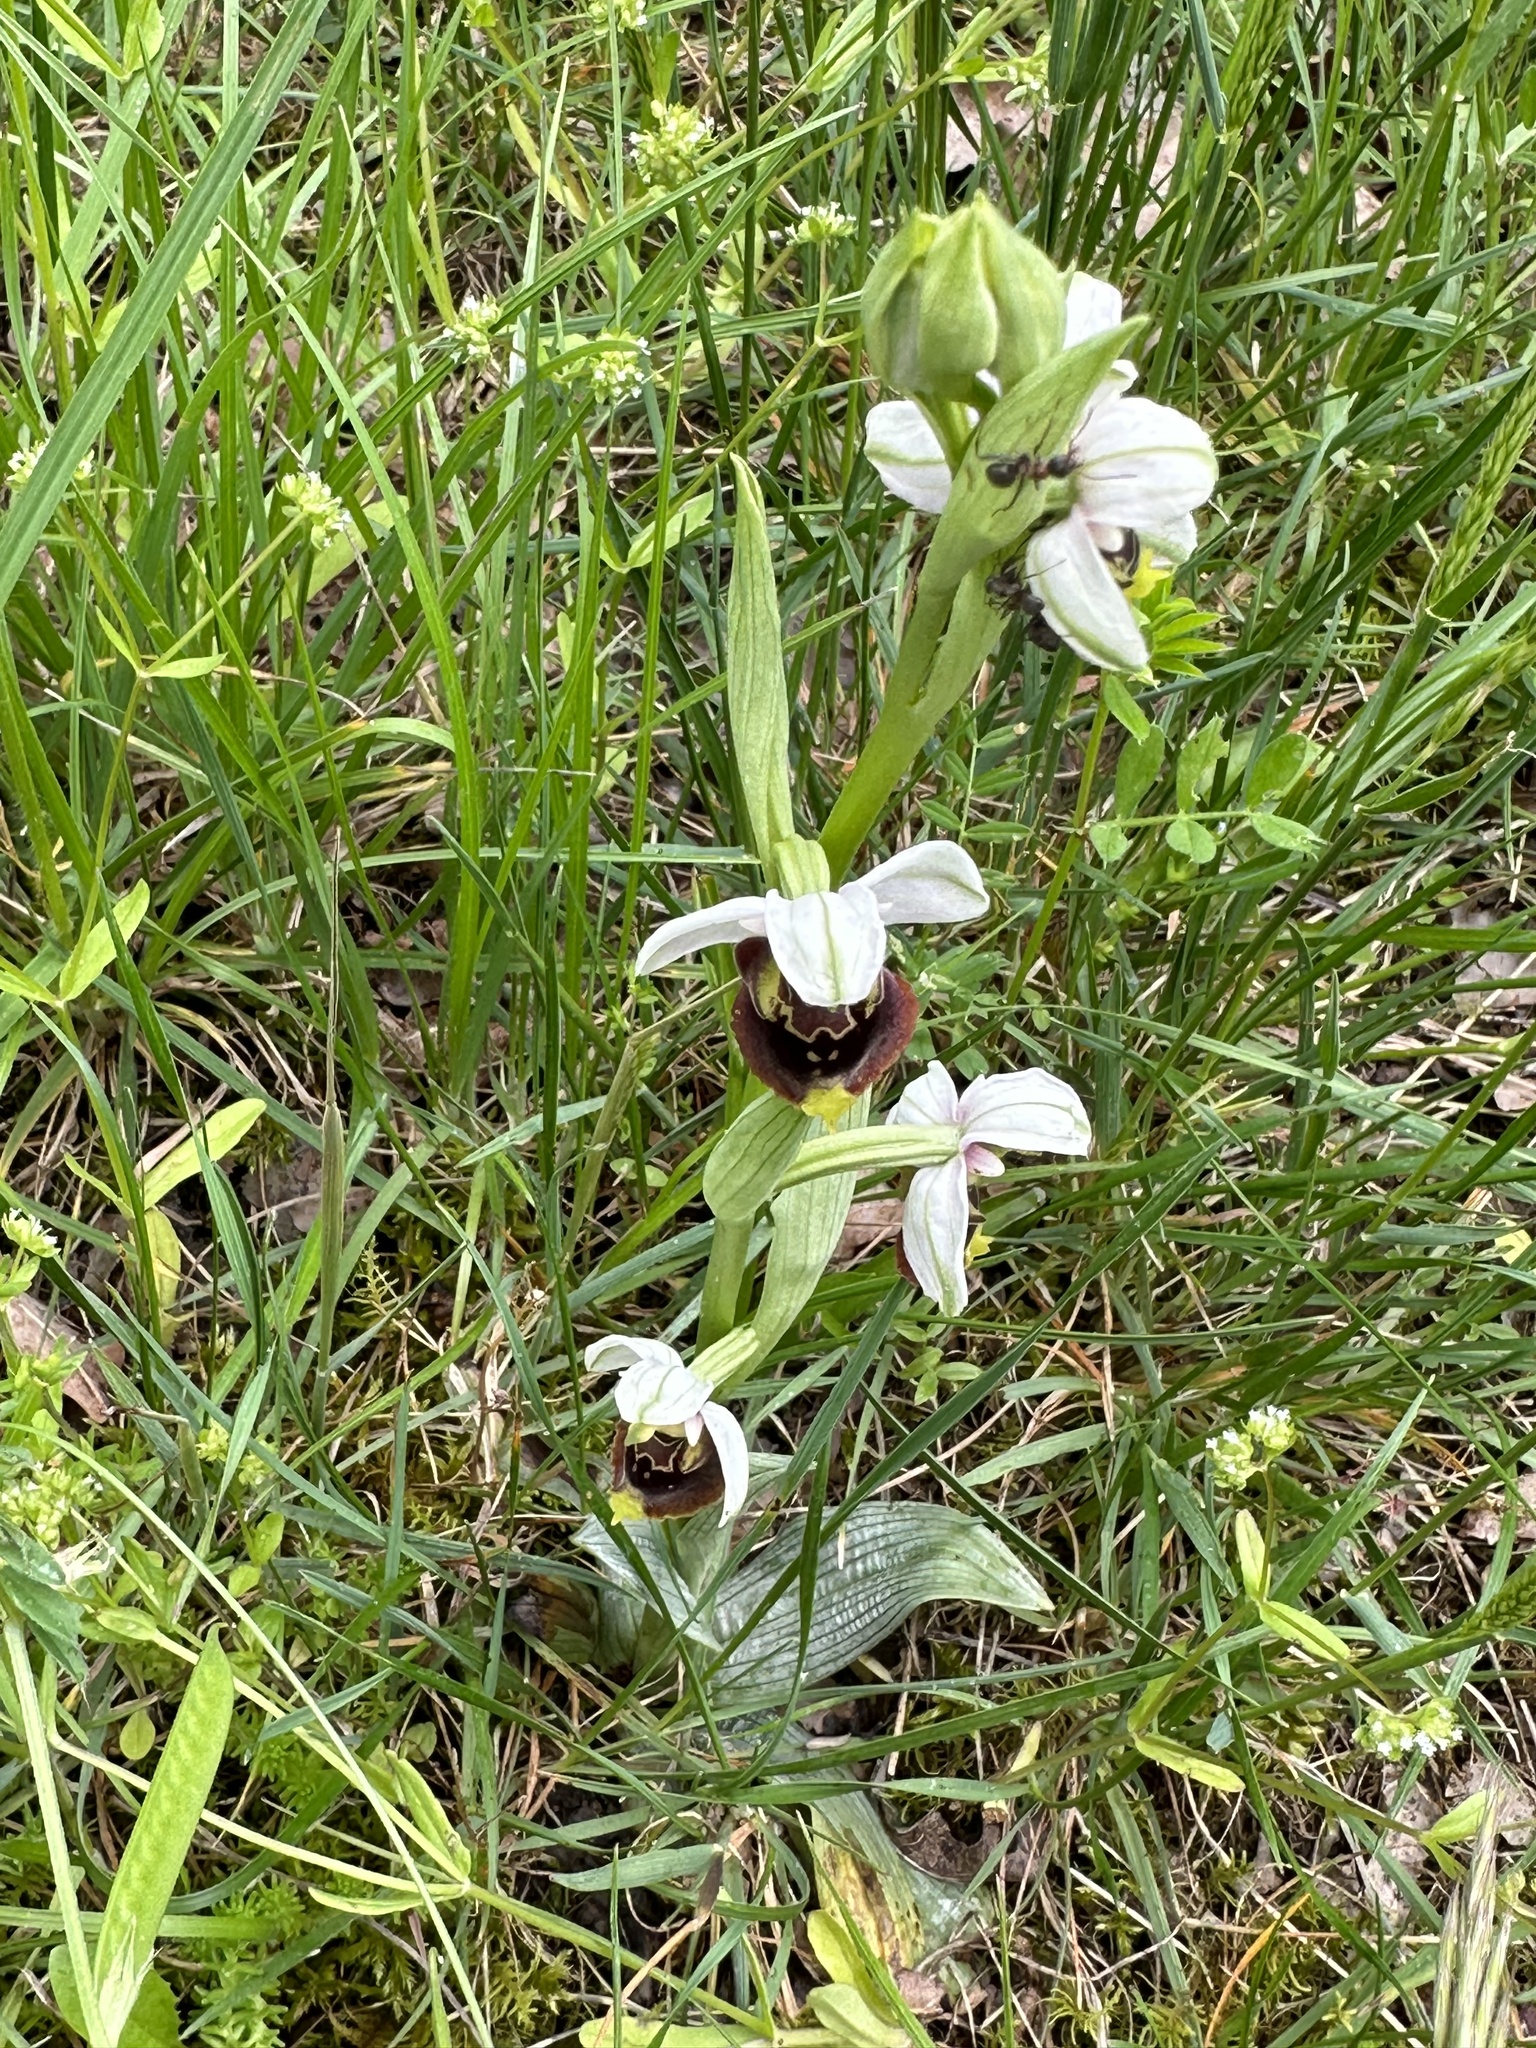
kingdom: Plantae
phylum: Tracheophyta
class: Liliopsida
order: Asparagales
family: Orchidaceae
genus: Ophrys
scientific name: Ophrys holosericea
